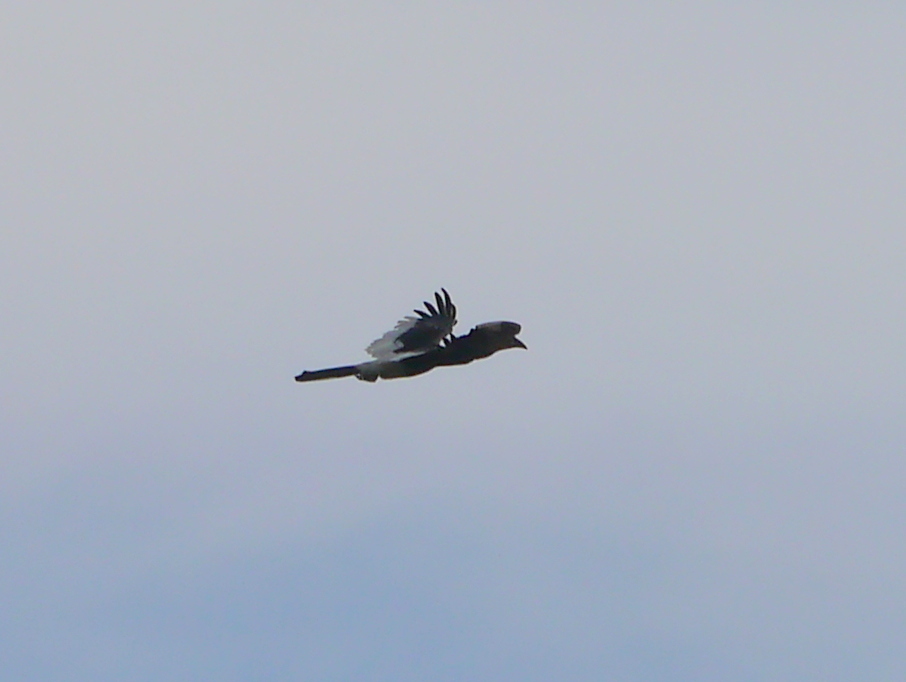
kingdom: Animalia
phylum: Chordata
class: Aves
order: Bucerotiformes
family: Bucerotidae
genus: Bycanistes
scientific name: Bycanistes subcylindricus
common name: Black-and-white-casqued hornbill
